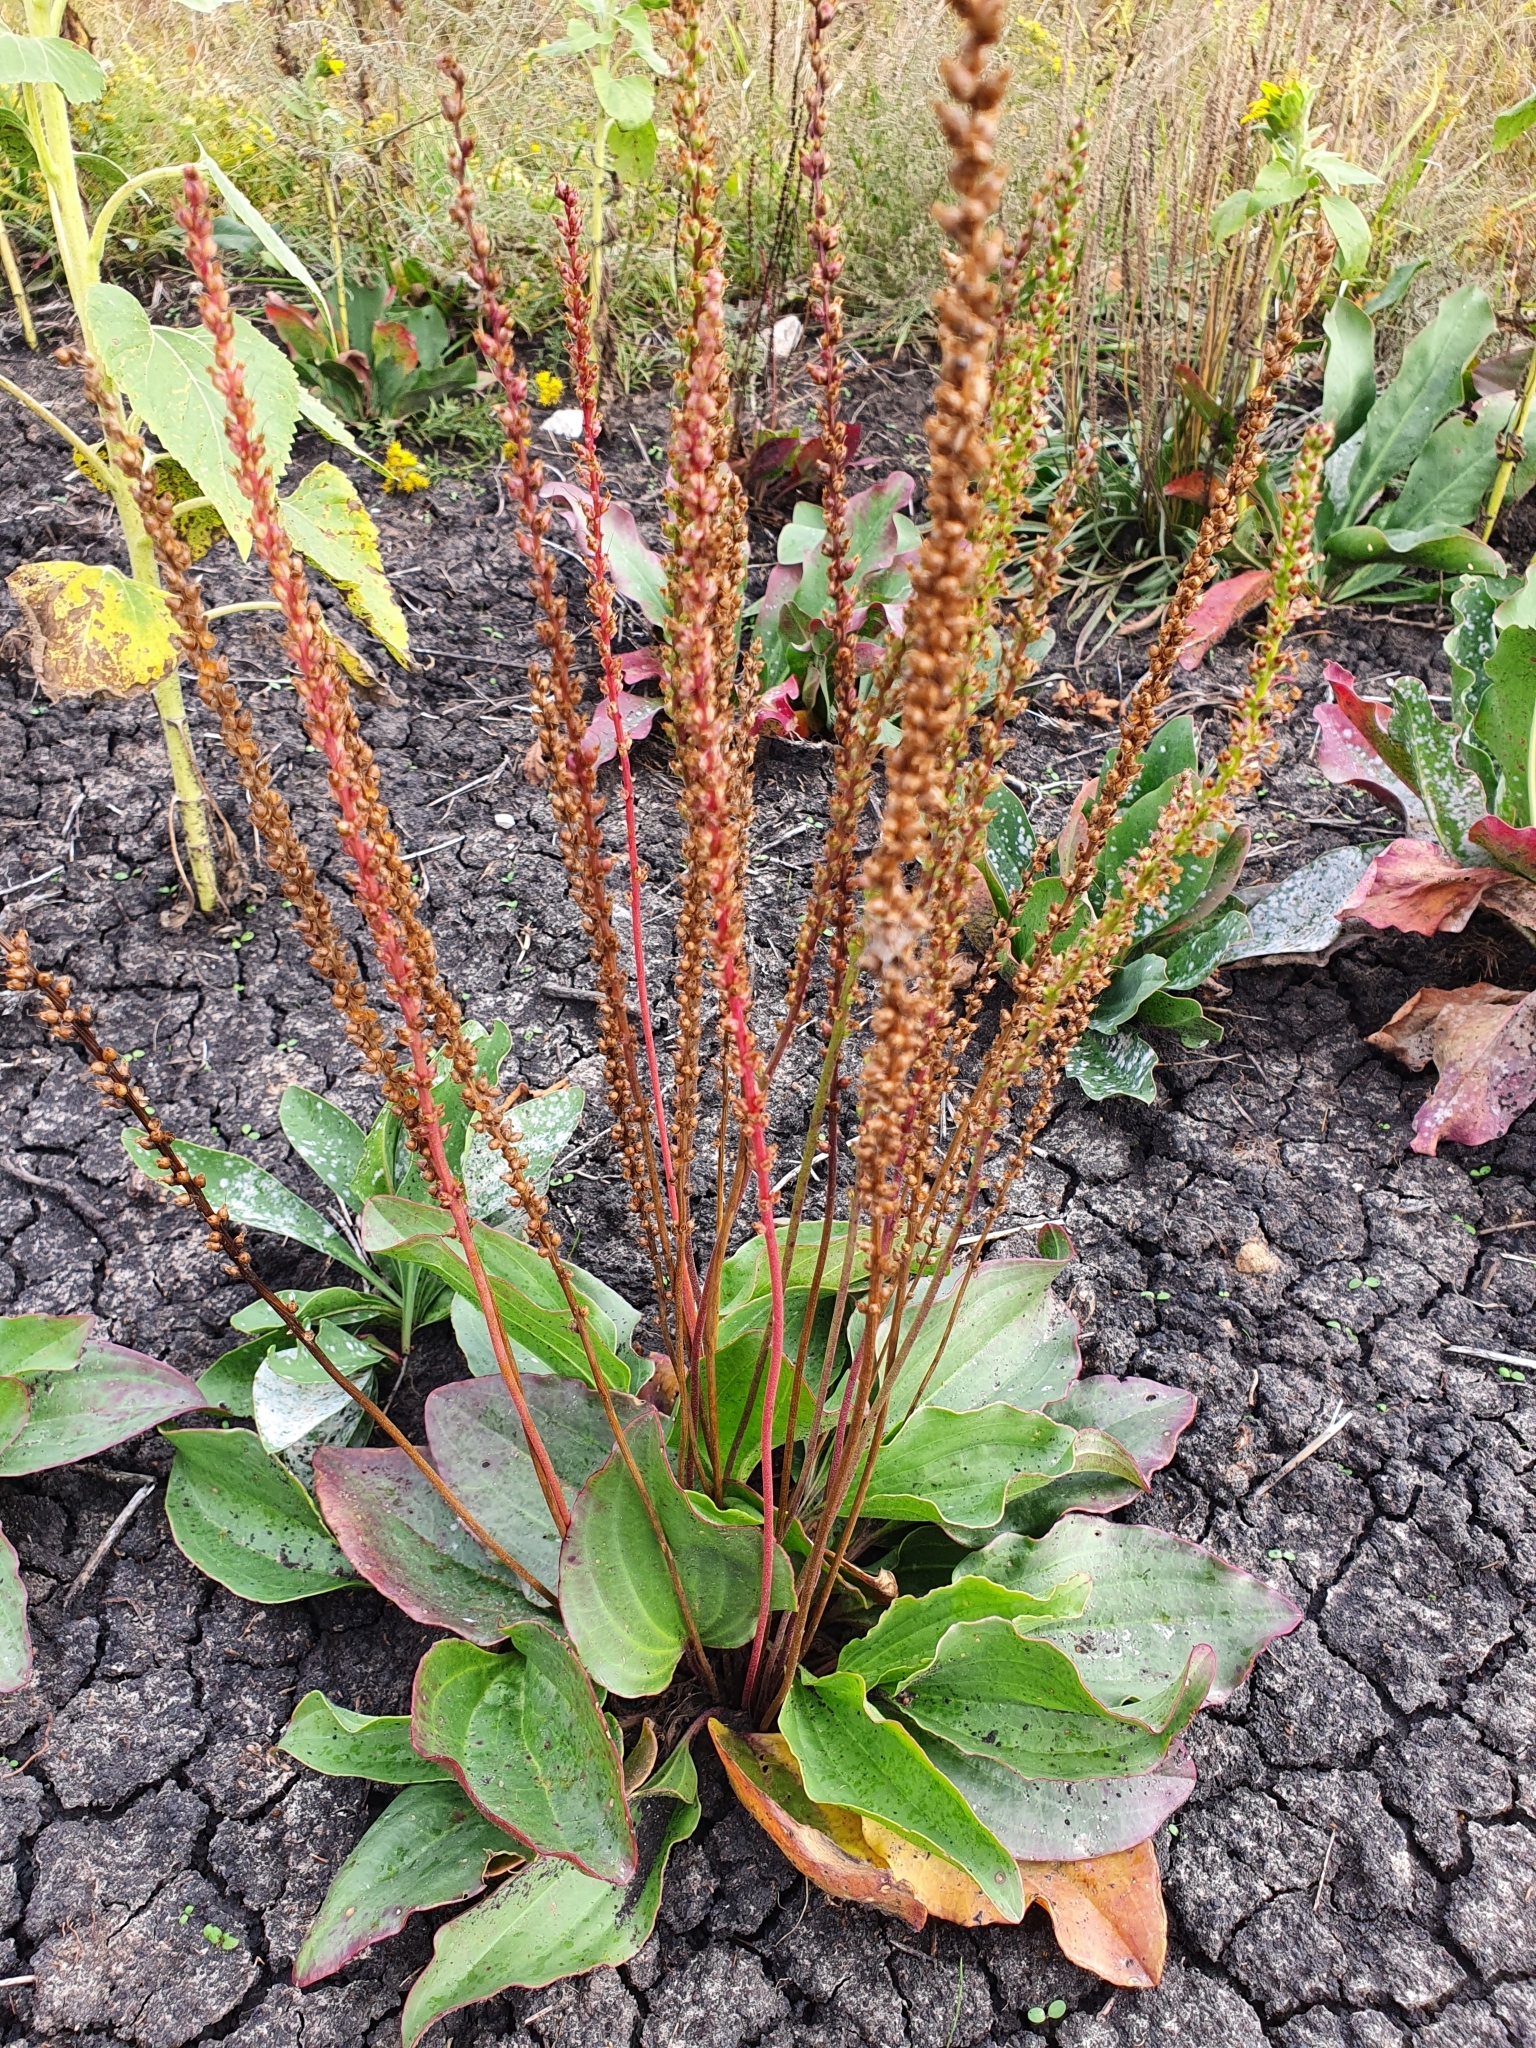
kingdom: Plantae
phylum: Tracheophyta
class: Magnoliopsida
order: Lamiales
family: Plantaginaceae
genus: Plantago
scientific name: Plantago cornuti
